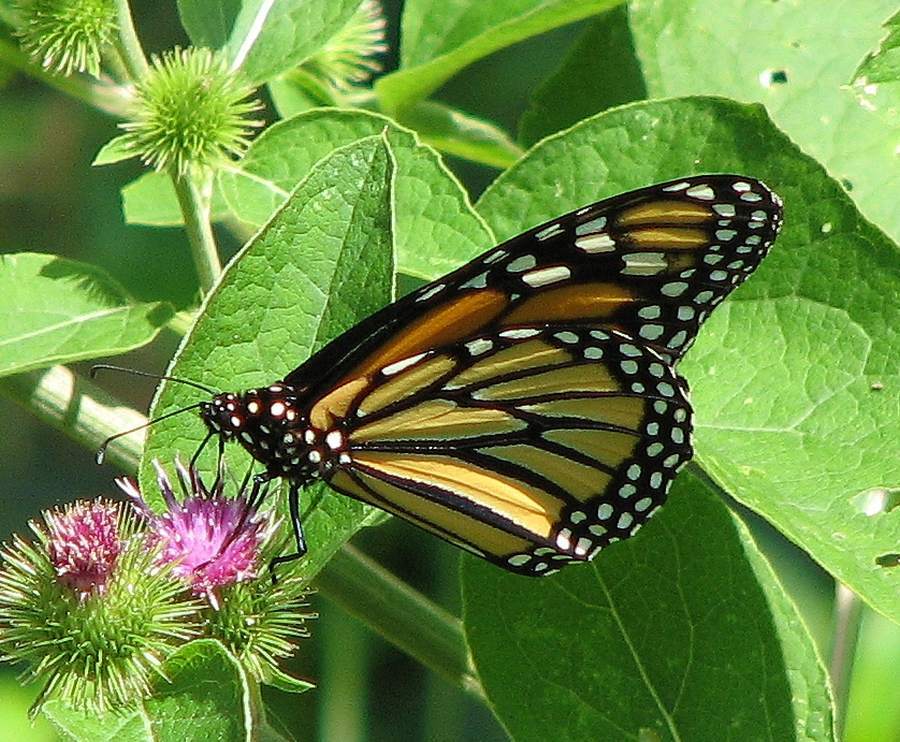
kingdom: Animalia
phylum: Arthropoda
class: Insecta
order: Lepidoptera
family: Nymphalidae
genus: Danaus
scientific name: Danaus plexippus
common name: Monarch
